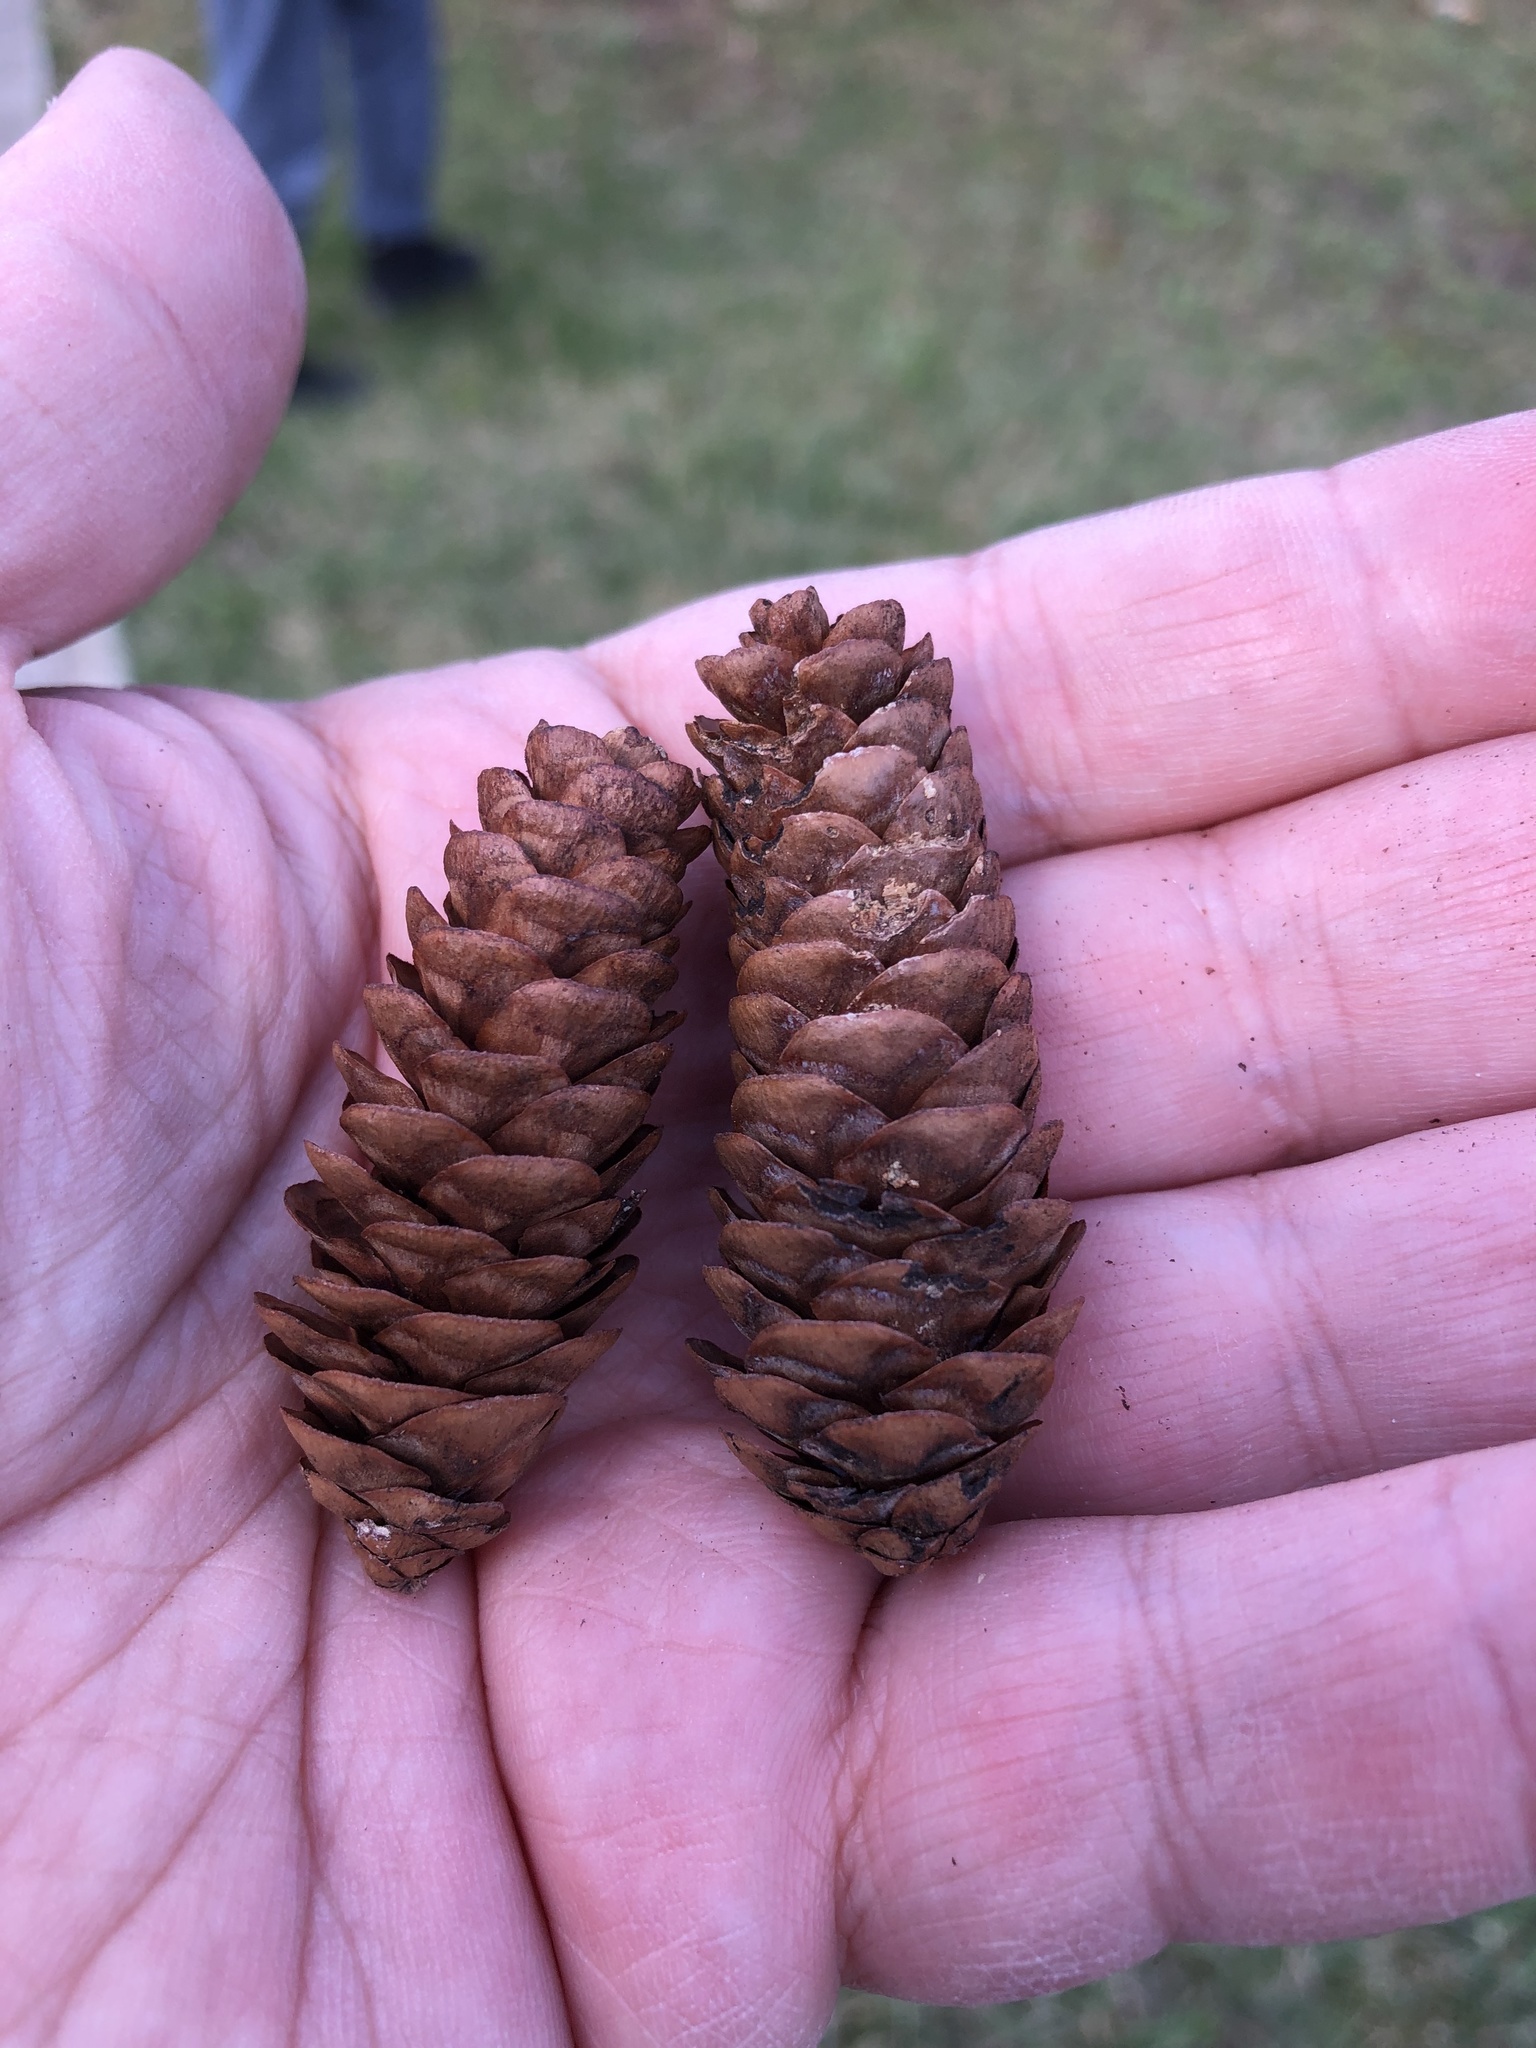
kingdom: Plantae
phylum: Tracheophyta
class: Pinopsida
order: Pinales
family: Pinaceae
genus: Picea
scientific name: Picea glauca
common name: White spruce
